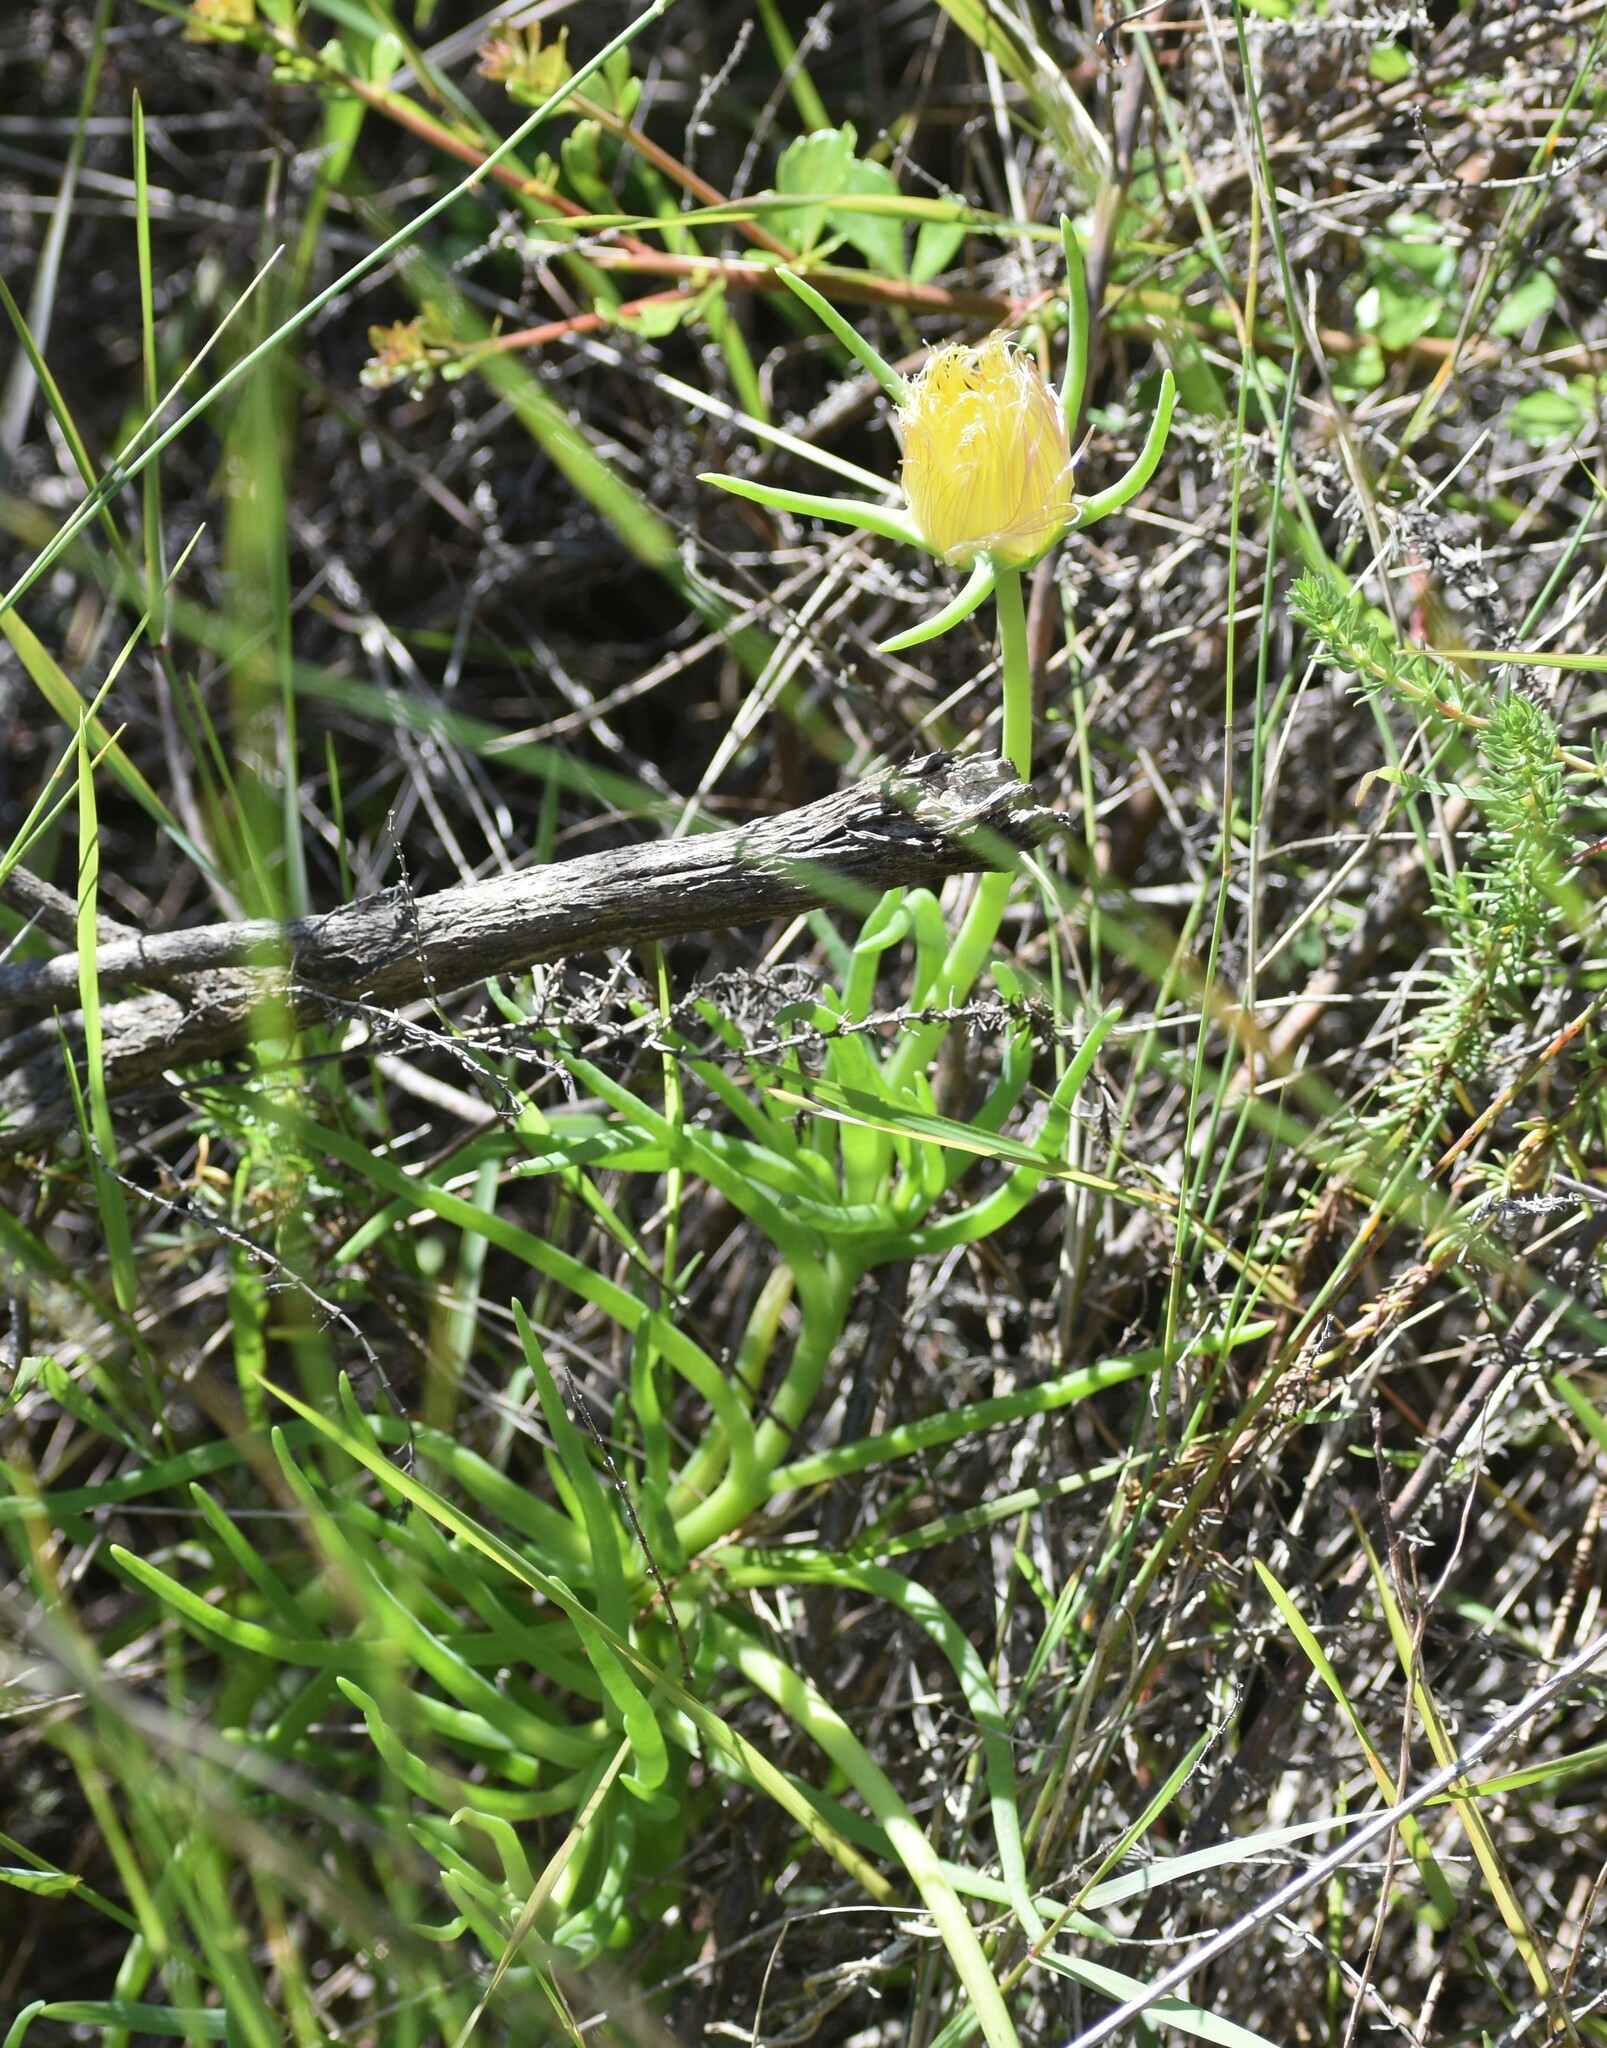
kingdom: Plantae
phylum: Tracheophyta
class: Magnoliopsida
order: Caryophyllales
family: Aizoaceae
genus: Conicosia
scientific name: Conicosia pugioniformis
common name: Narrow-leaved iceplant
